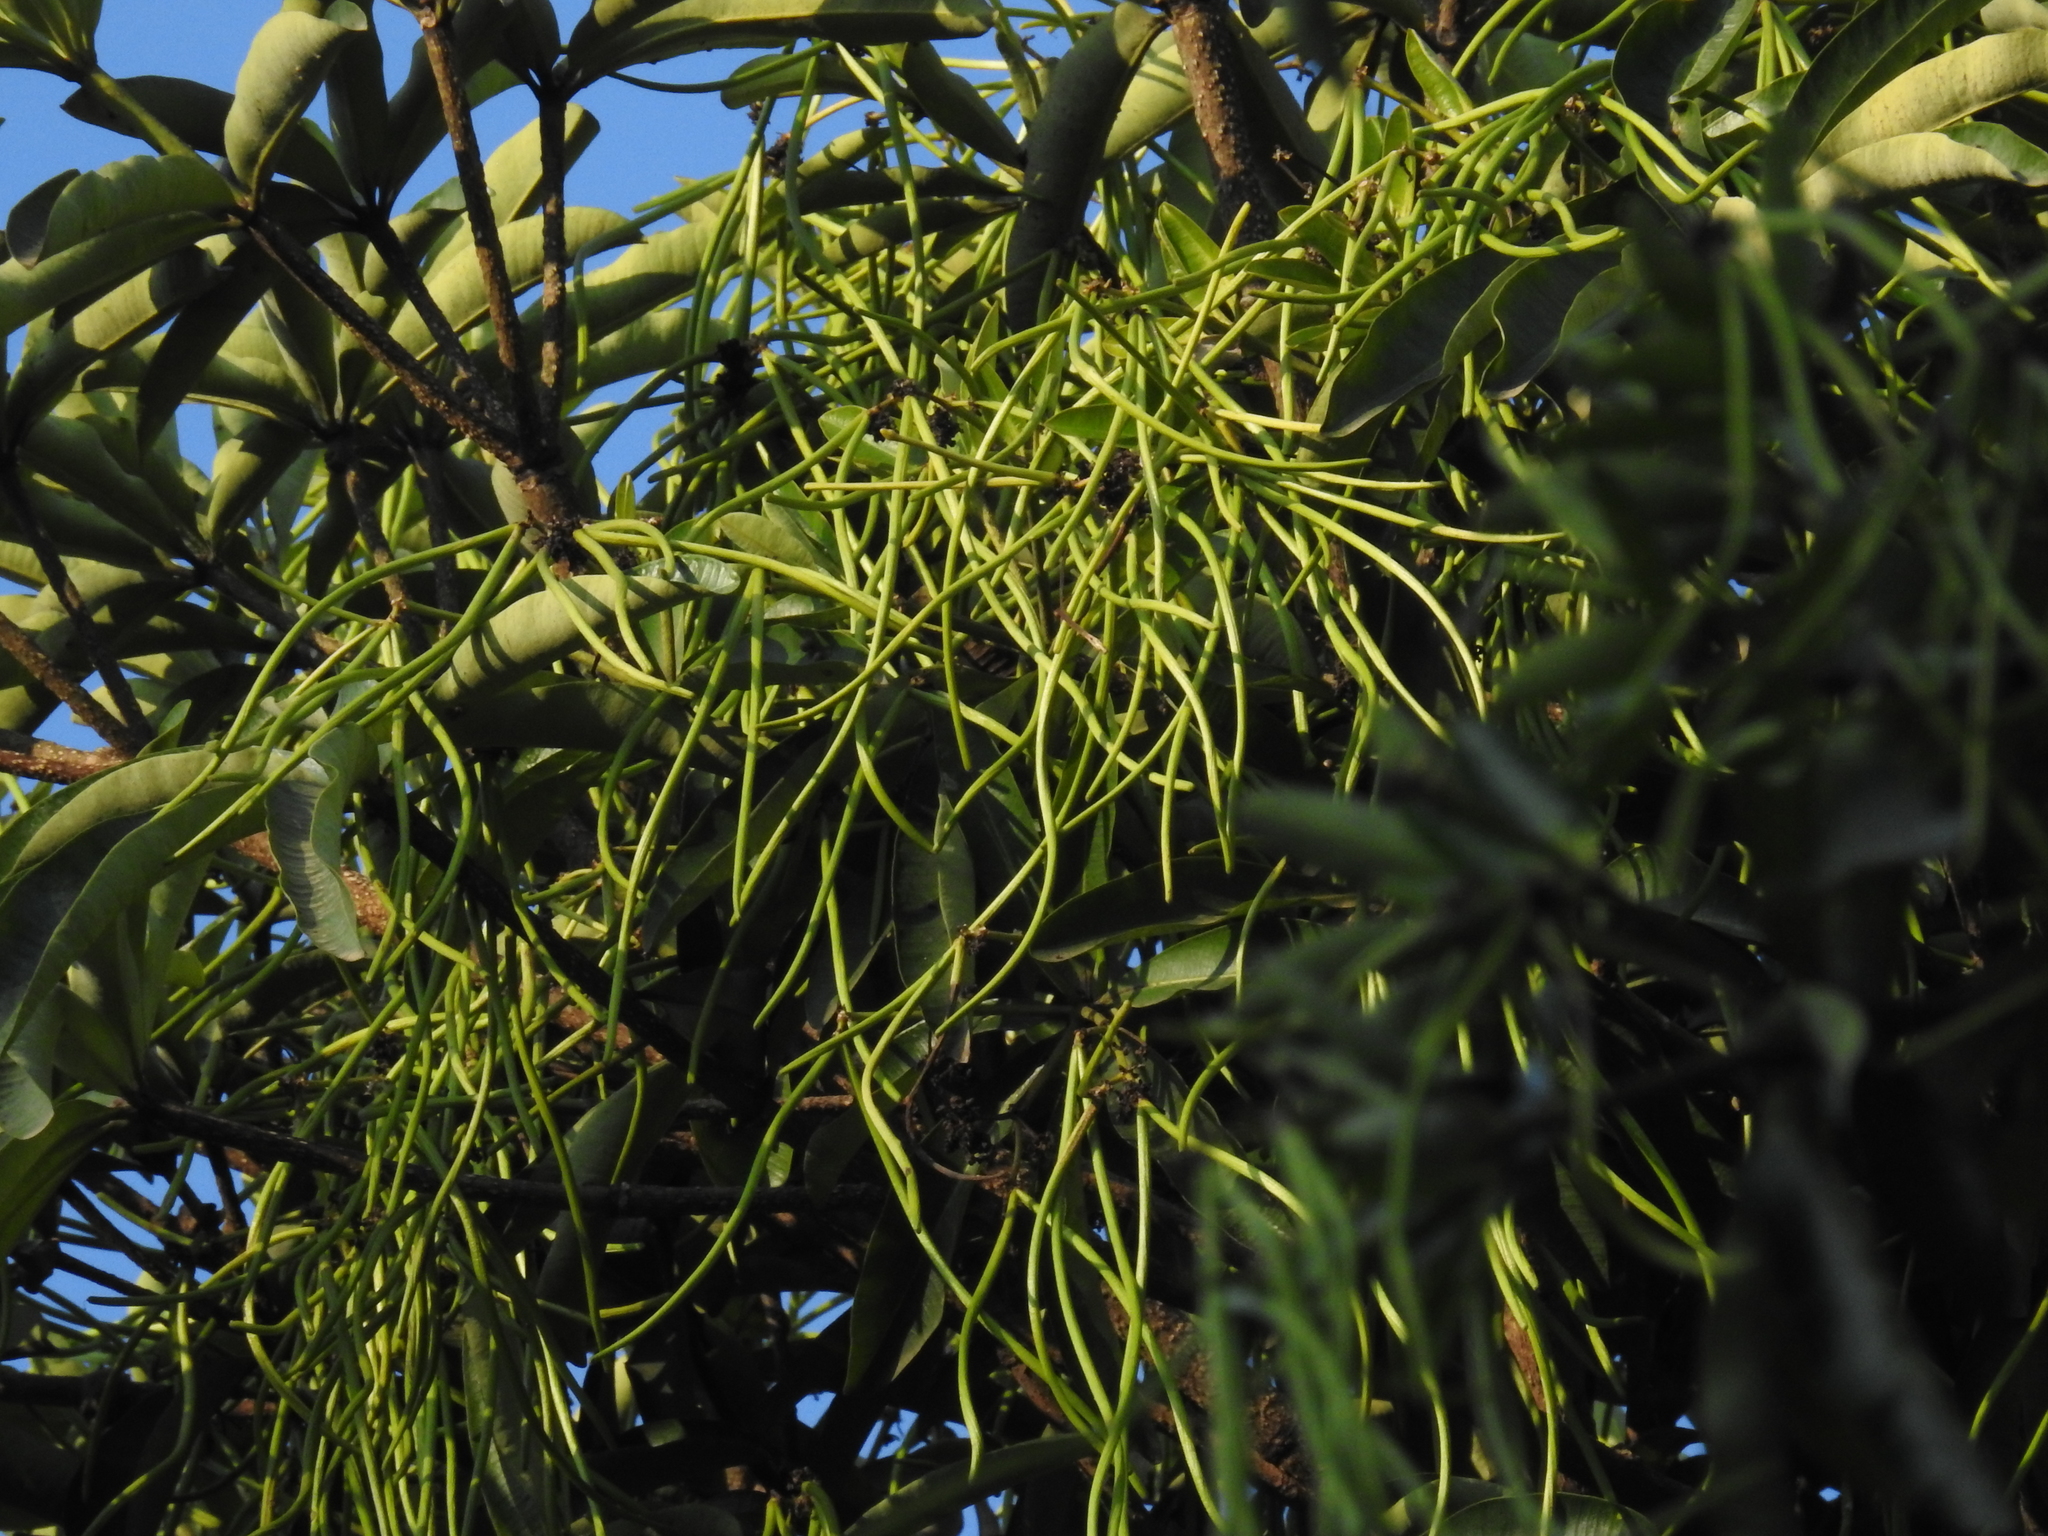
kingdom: Plantae
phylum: Tracheophyta
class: Magnoliopsida
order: Gentianales
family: Apocynaceae
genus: Alstonia
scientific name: Alstonia scholaris
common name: White cheesewood
